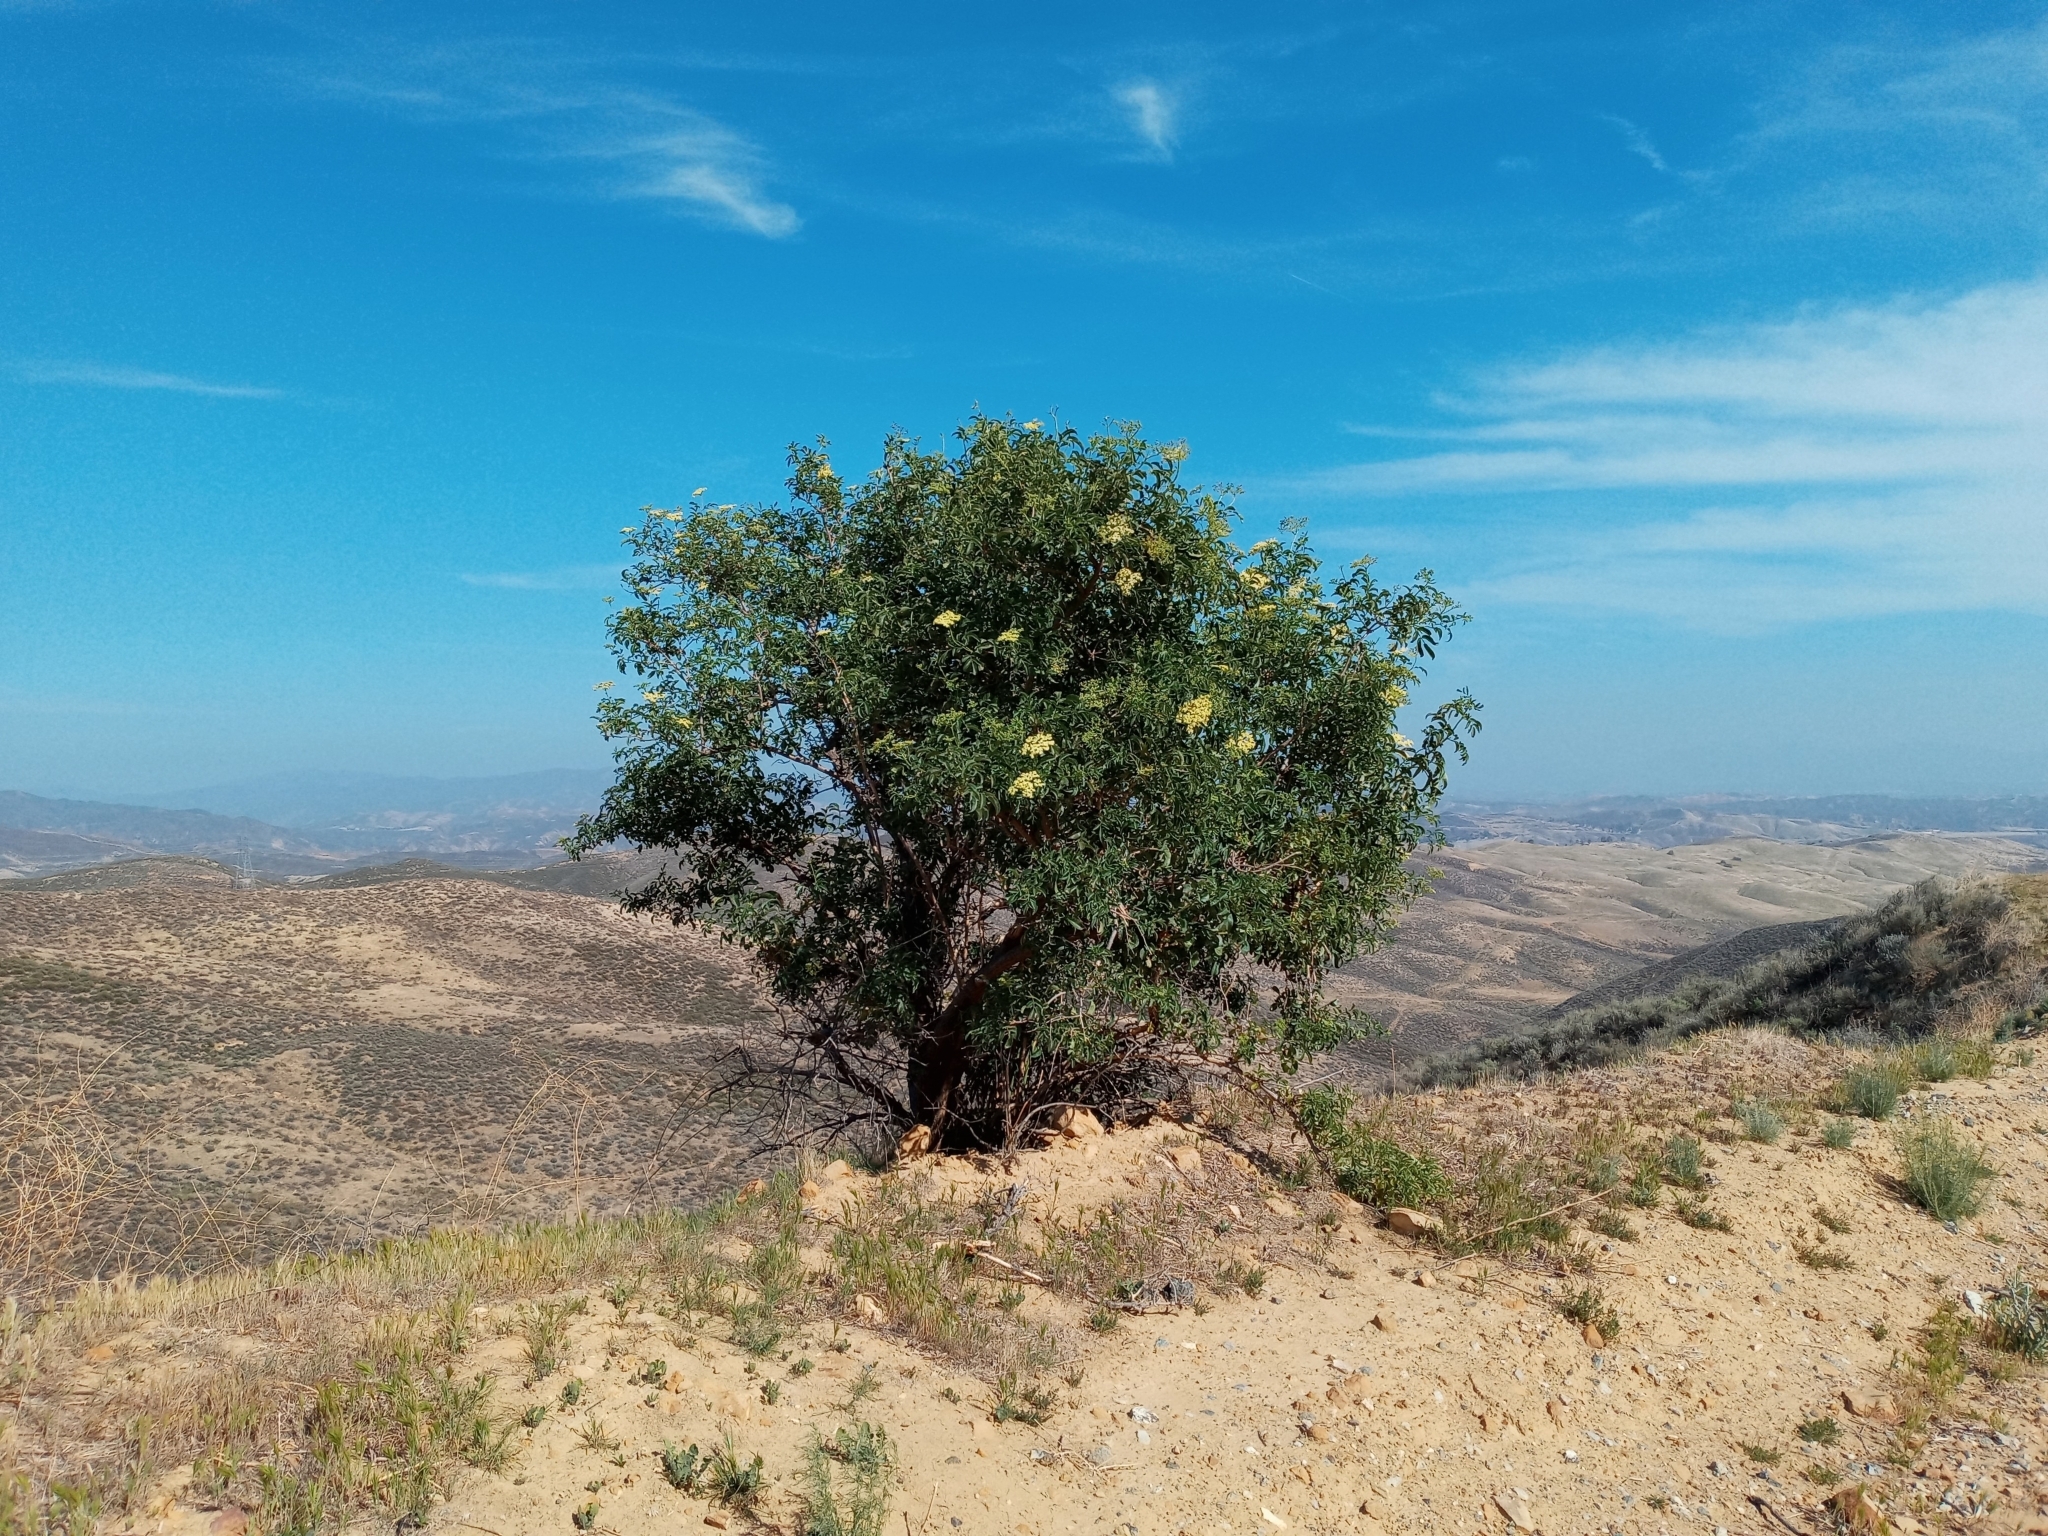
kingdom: Plantae
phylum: Tracheophyta
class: Magnoliopsida
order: Dipsacales
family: Viburnaceae
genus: Sambucus
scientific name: Sambucus cerulea
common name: Blue elder
